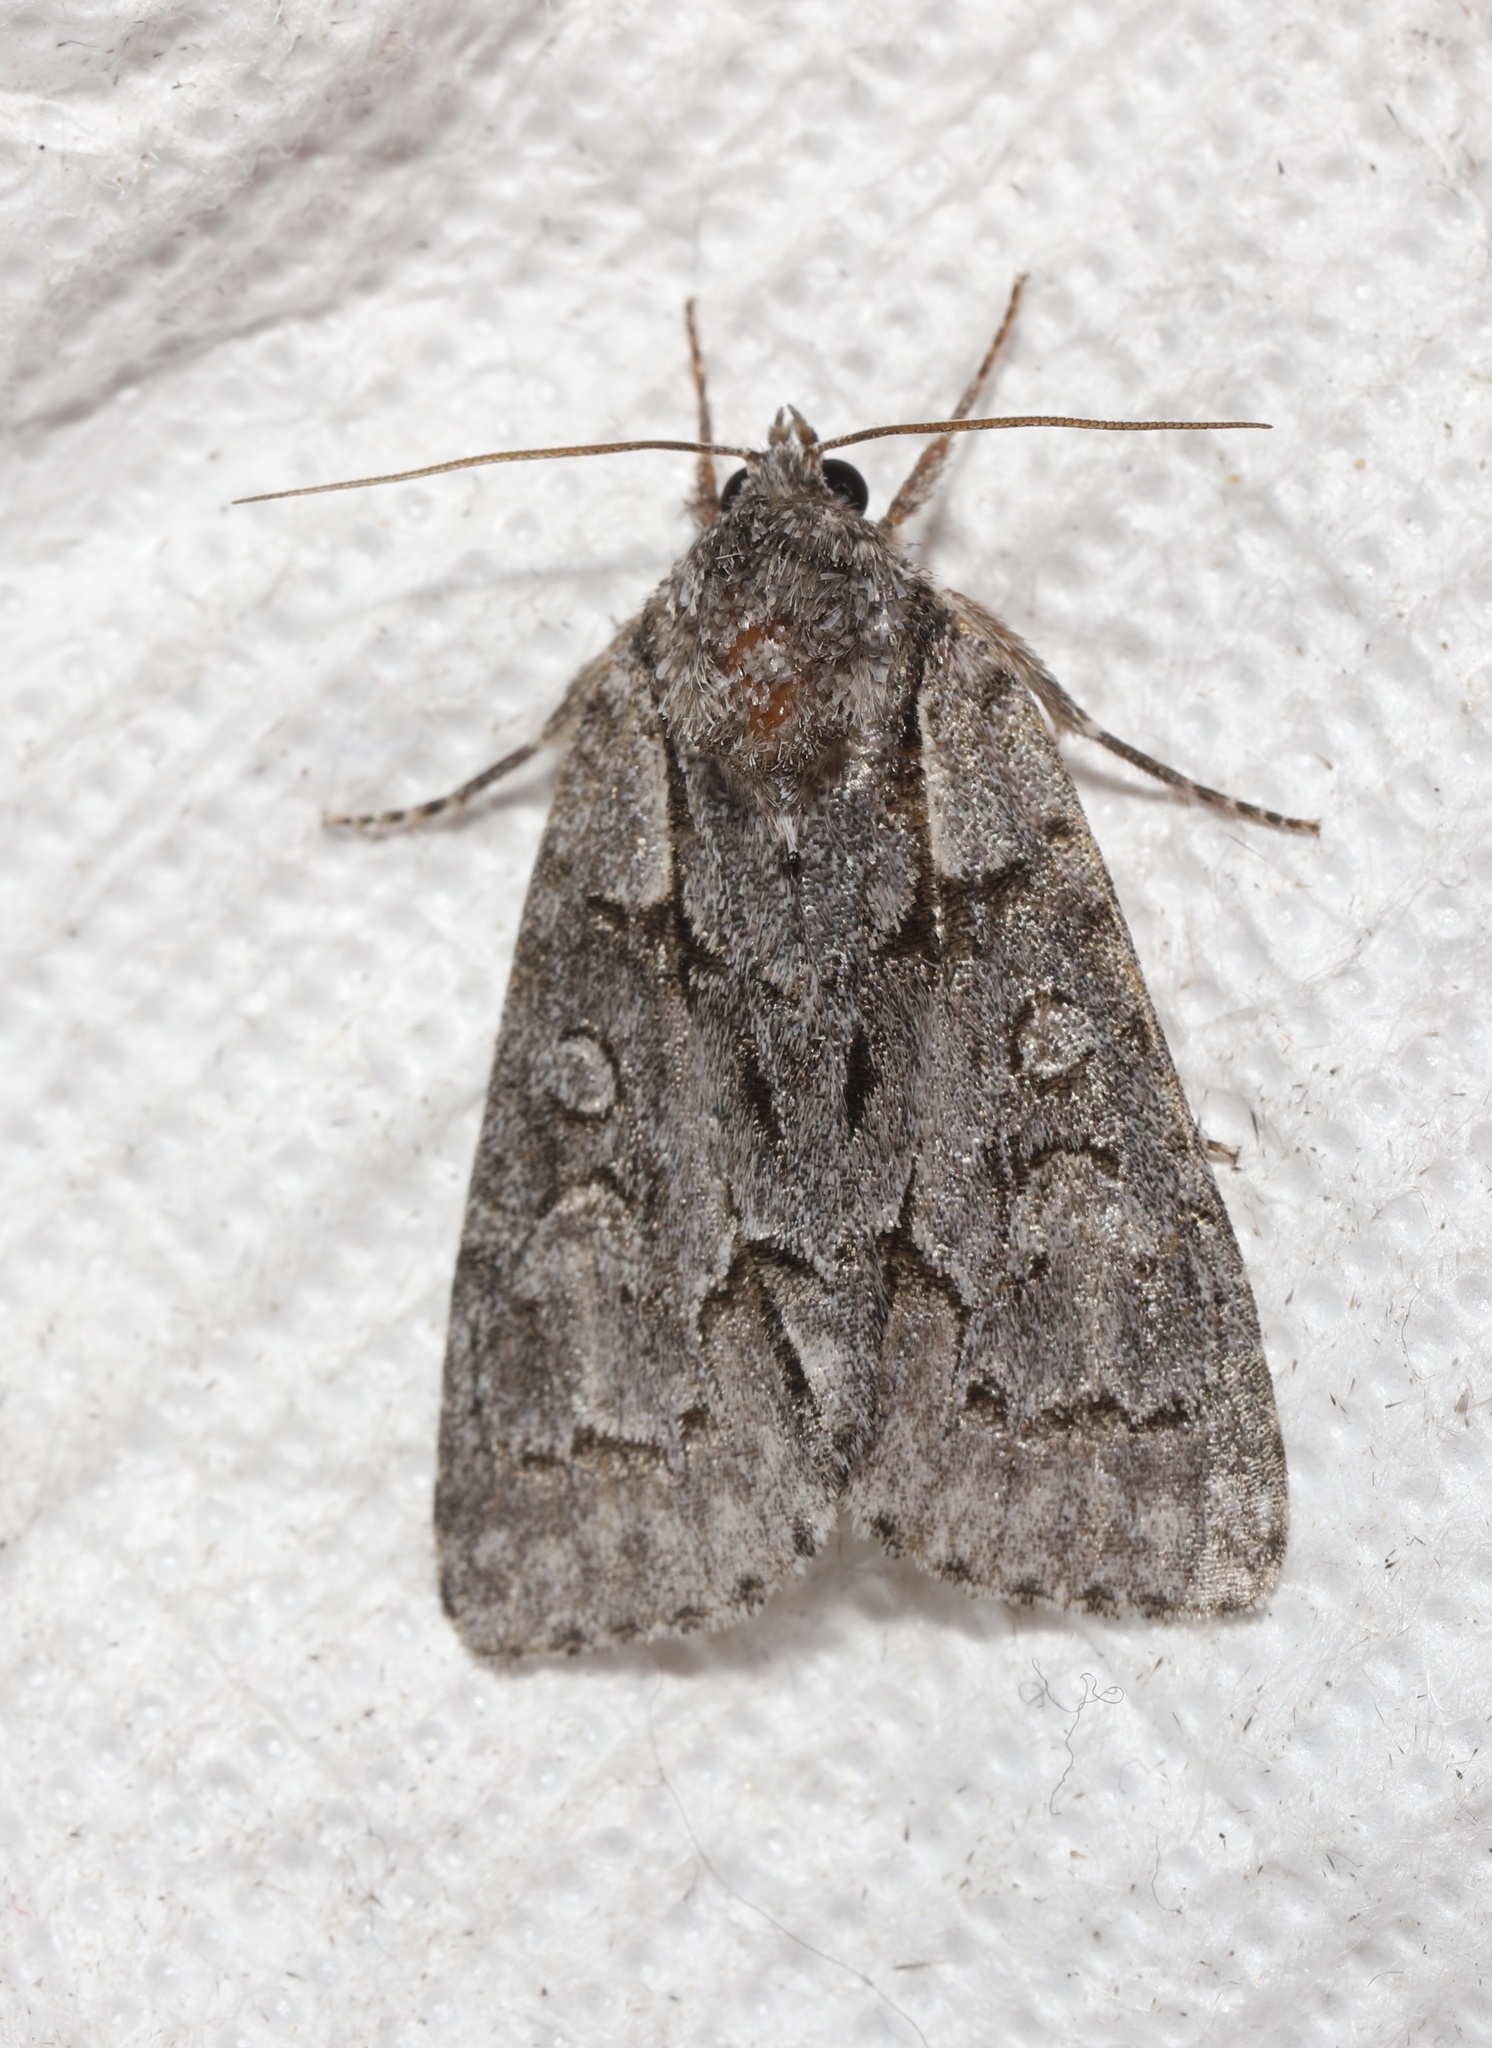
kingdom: Animalia
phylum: Arthropoda
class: Insecta
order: Lepidoptera
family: Noctuidae
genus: Acronicta
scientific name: Acronicta grisea
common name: Gray dagger
